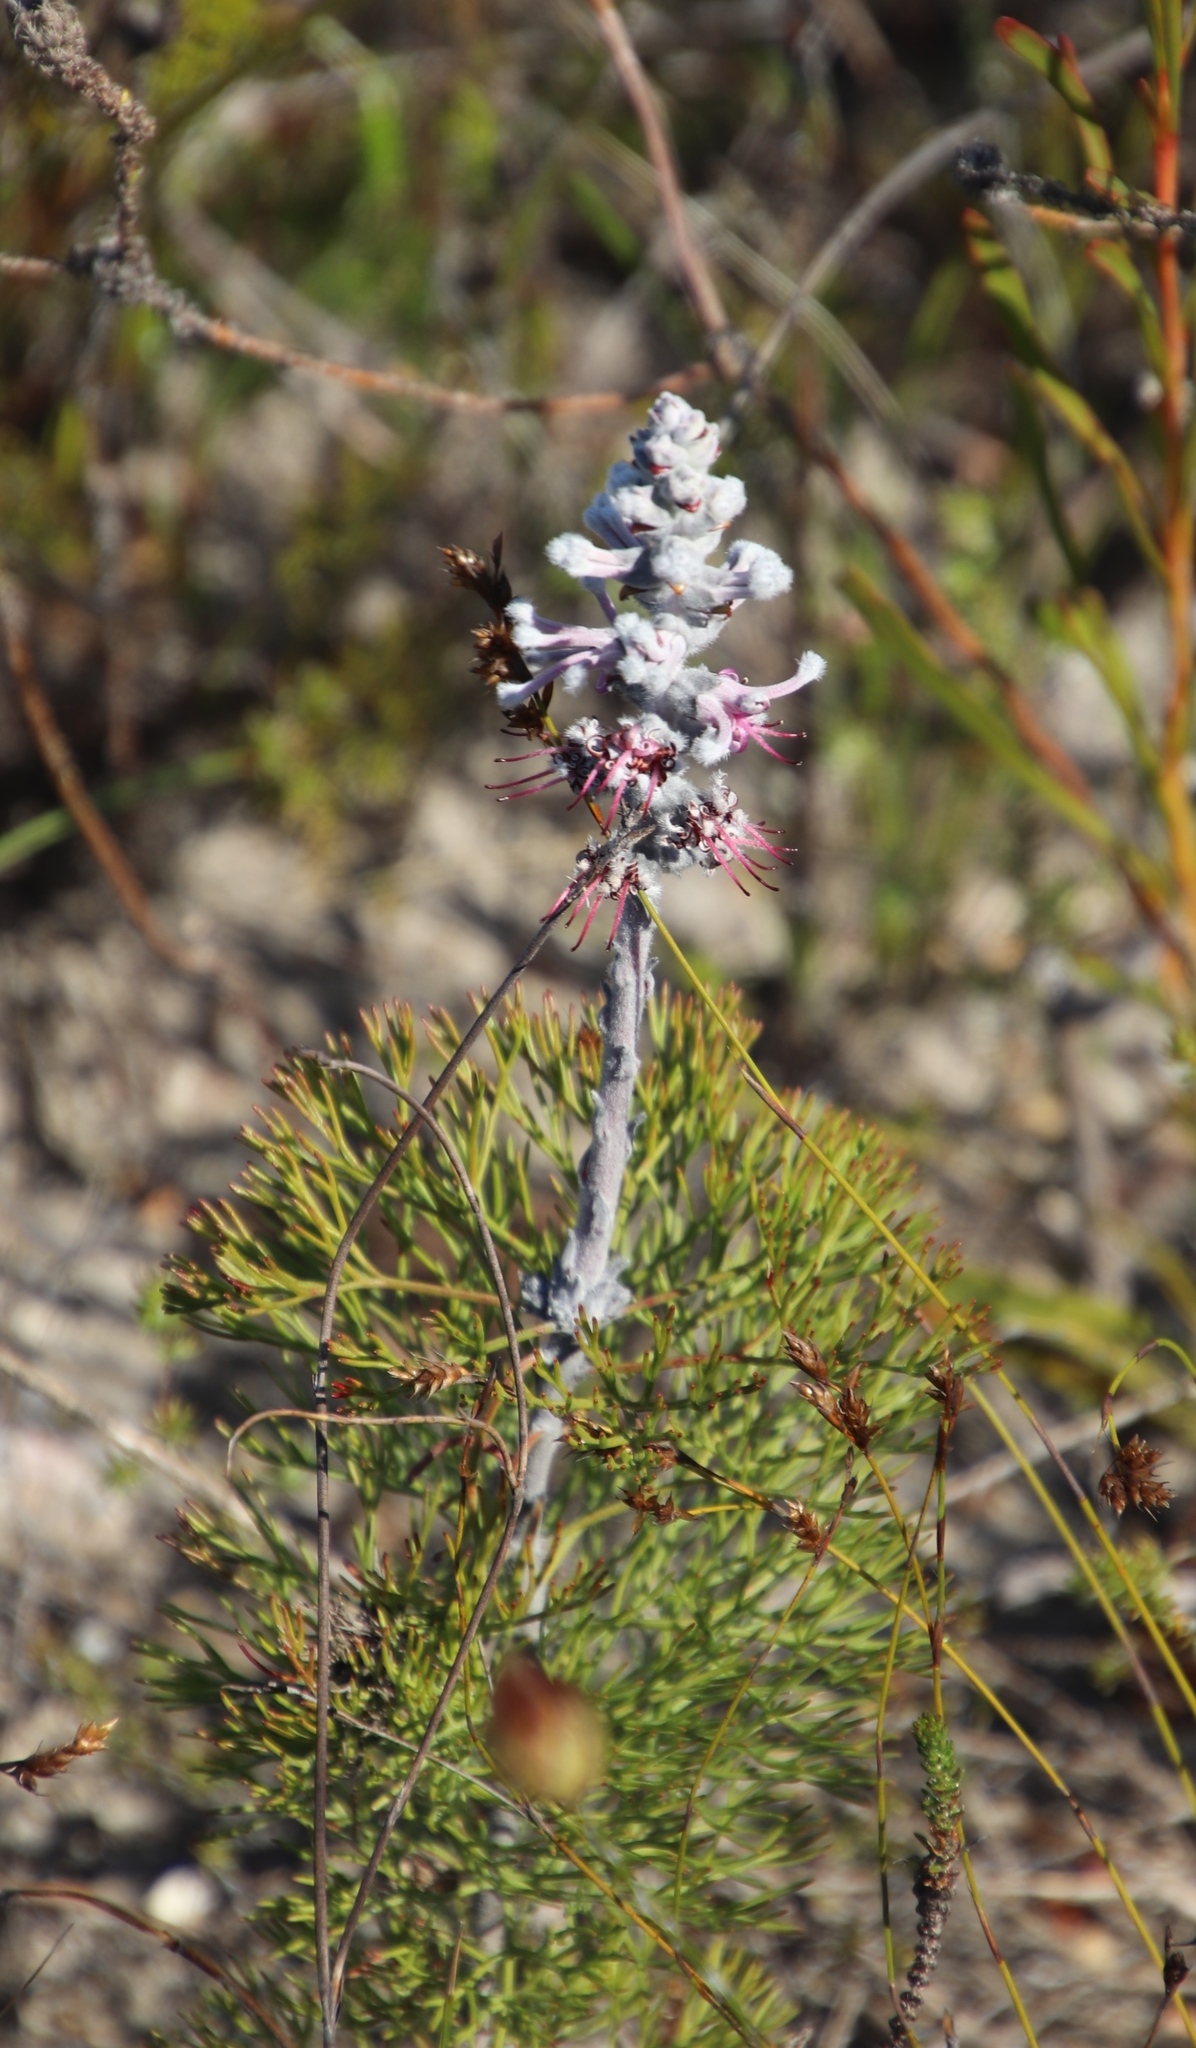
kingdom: Plantae
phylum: Tracheophyta
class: Magnoliopsida
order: Proteales
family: Proteaceae
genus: Paranomus
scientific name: Paranomus bolusii
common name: Overberg sceptre
